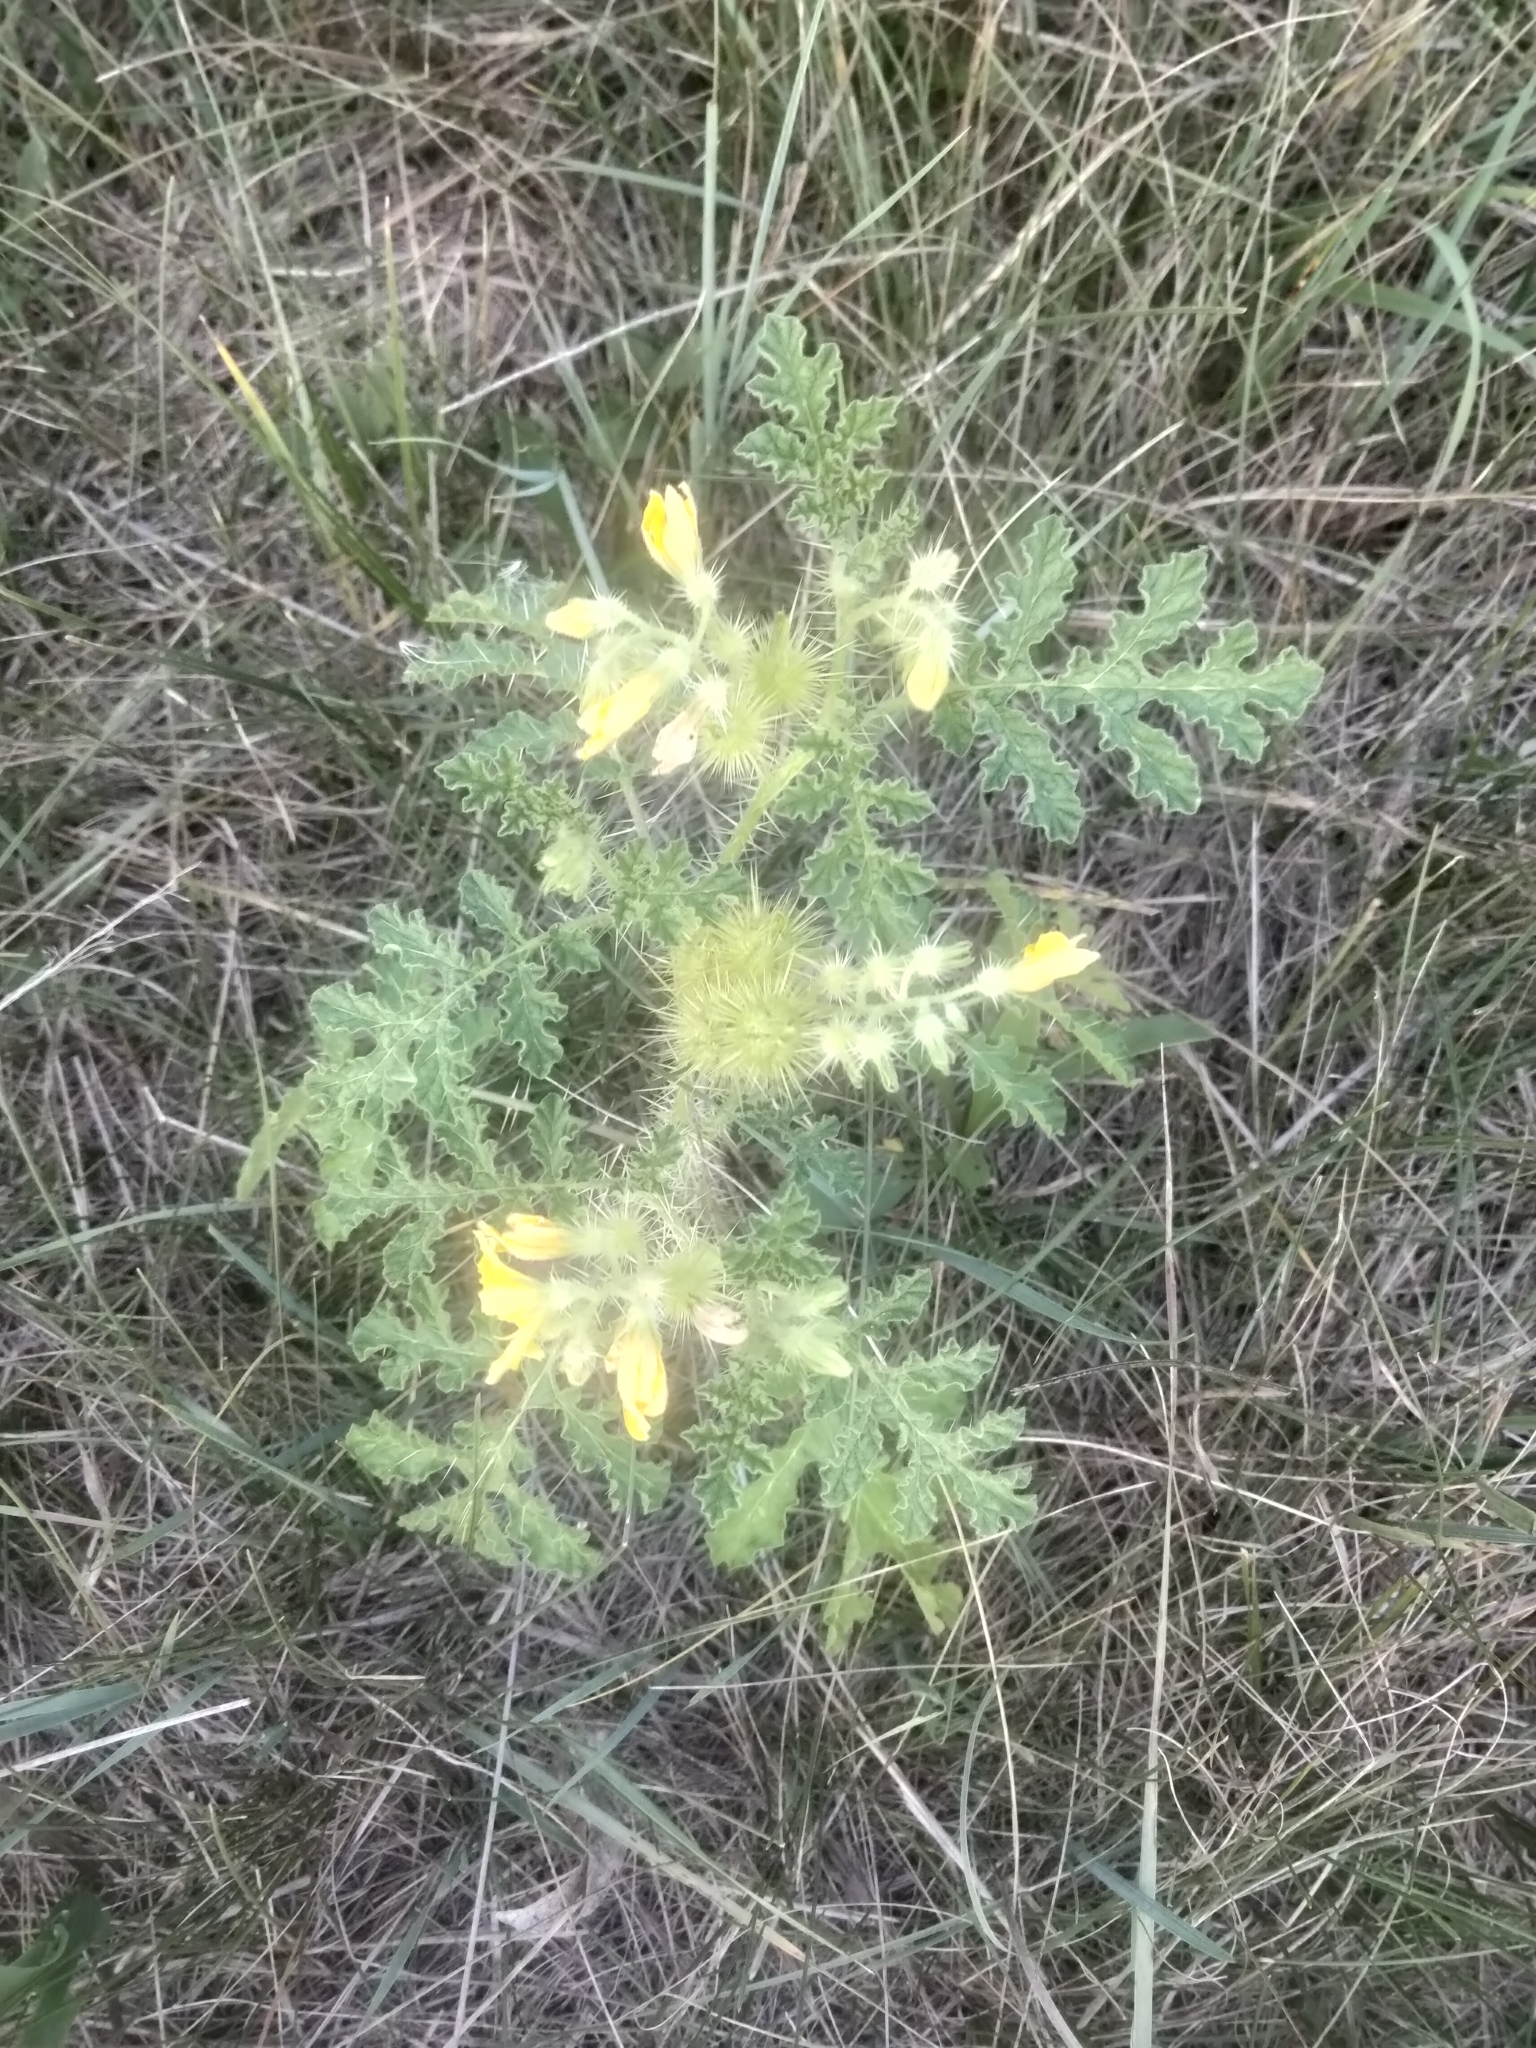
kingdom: Plantae
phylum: Tracheophyta
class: Magnoliopsida
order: Solanales
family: Solanaceae
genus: Solanum
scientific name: Solanum angustifolium
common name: Buffalobur nightshade
